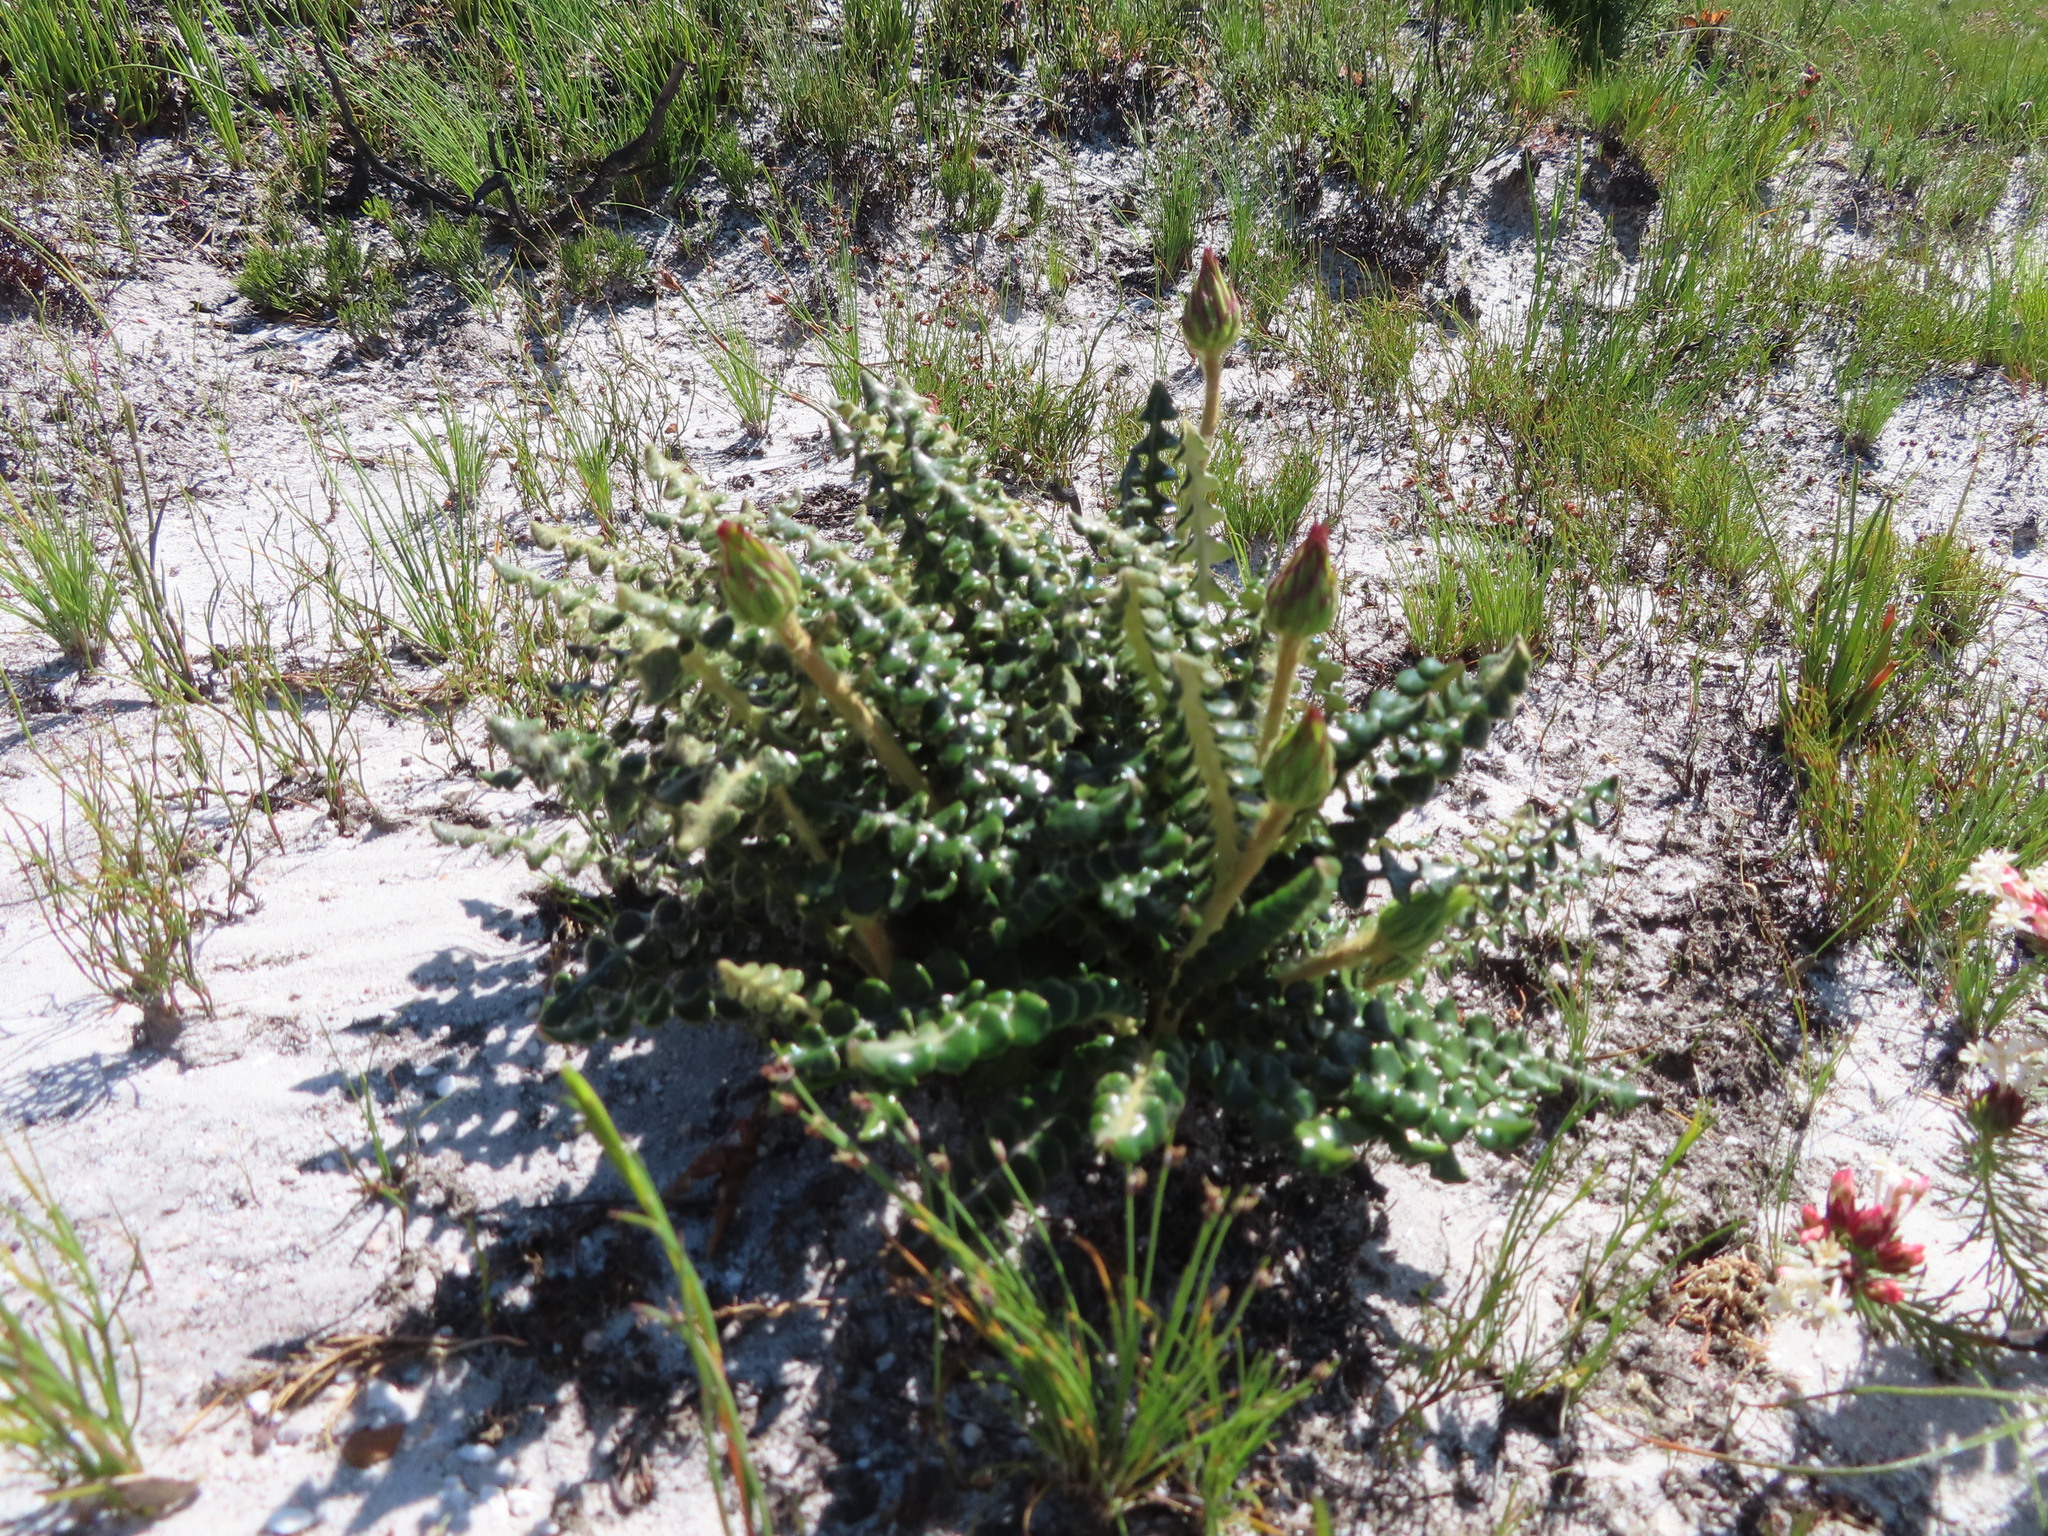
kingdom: Plantae
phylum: Tracheophyta
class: Magnoliopsida
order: Asterales
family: Asteraceae
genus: Gerbera
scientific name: Gerbera linnaei
